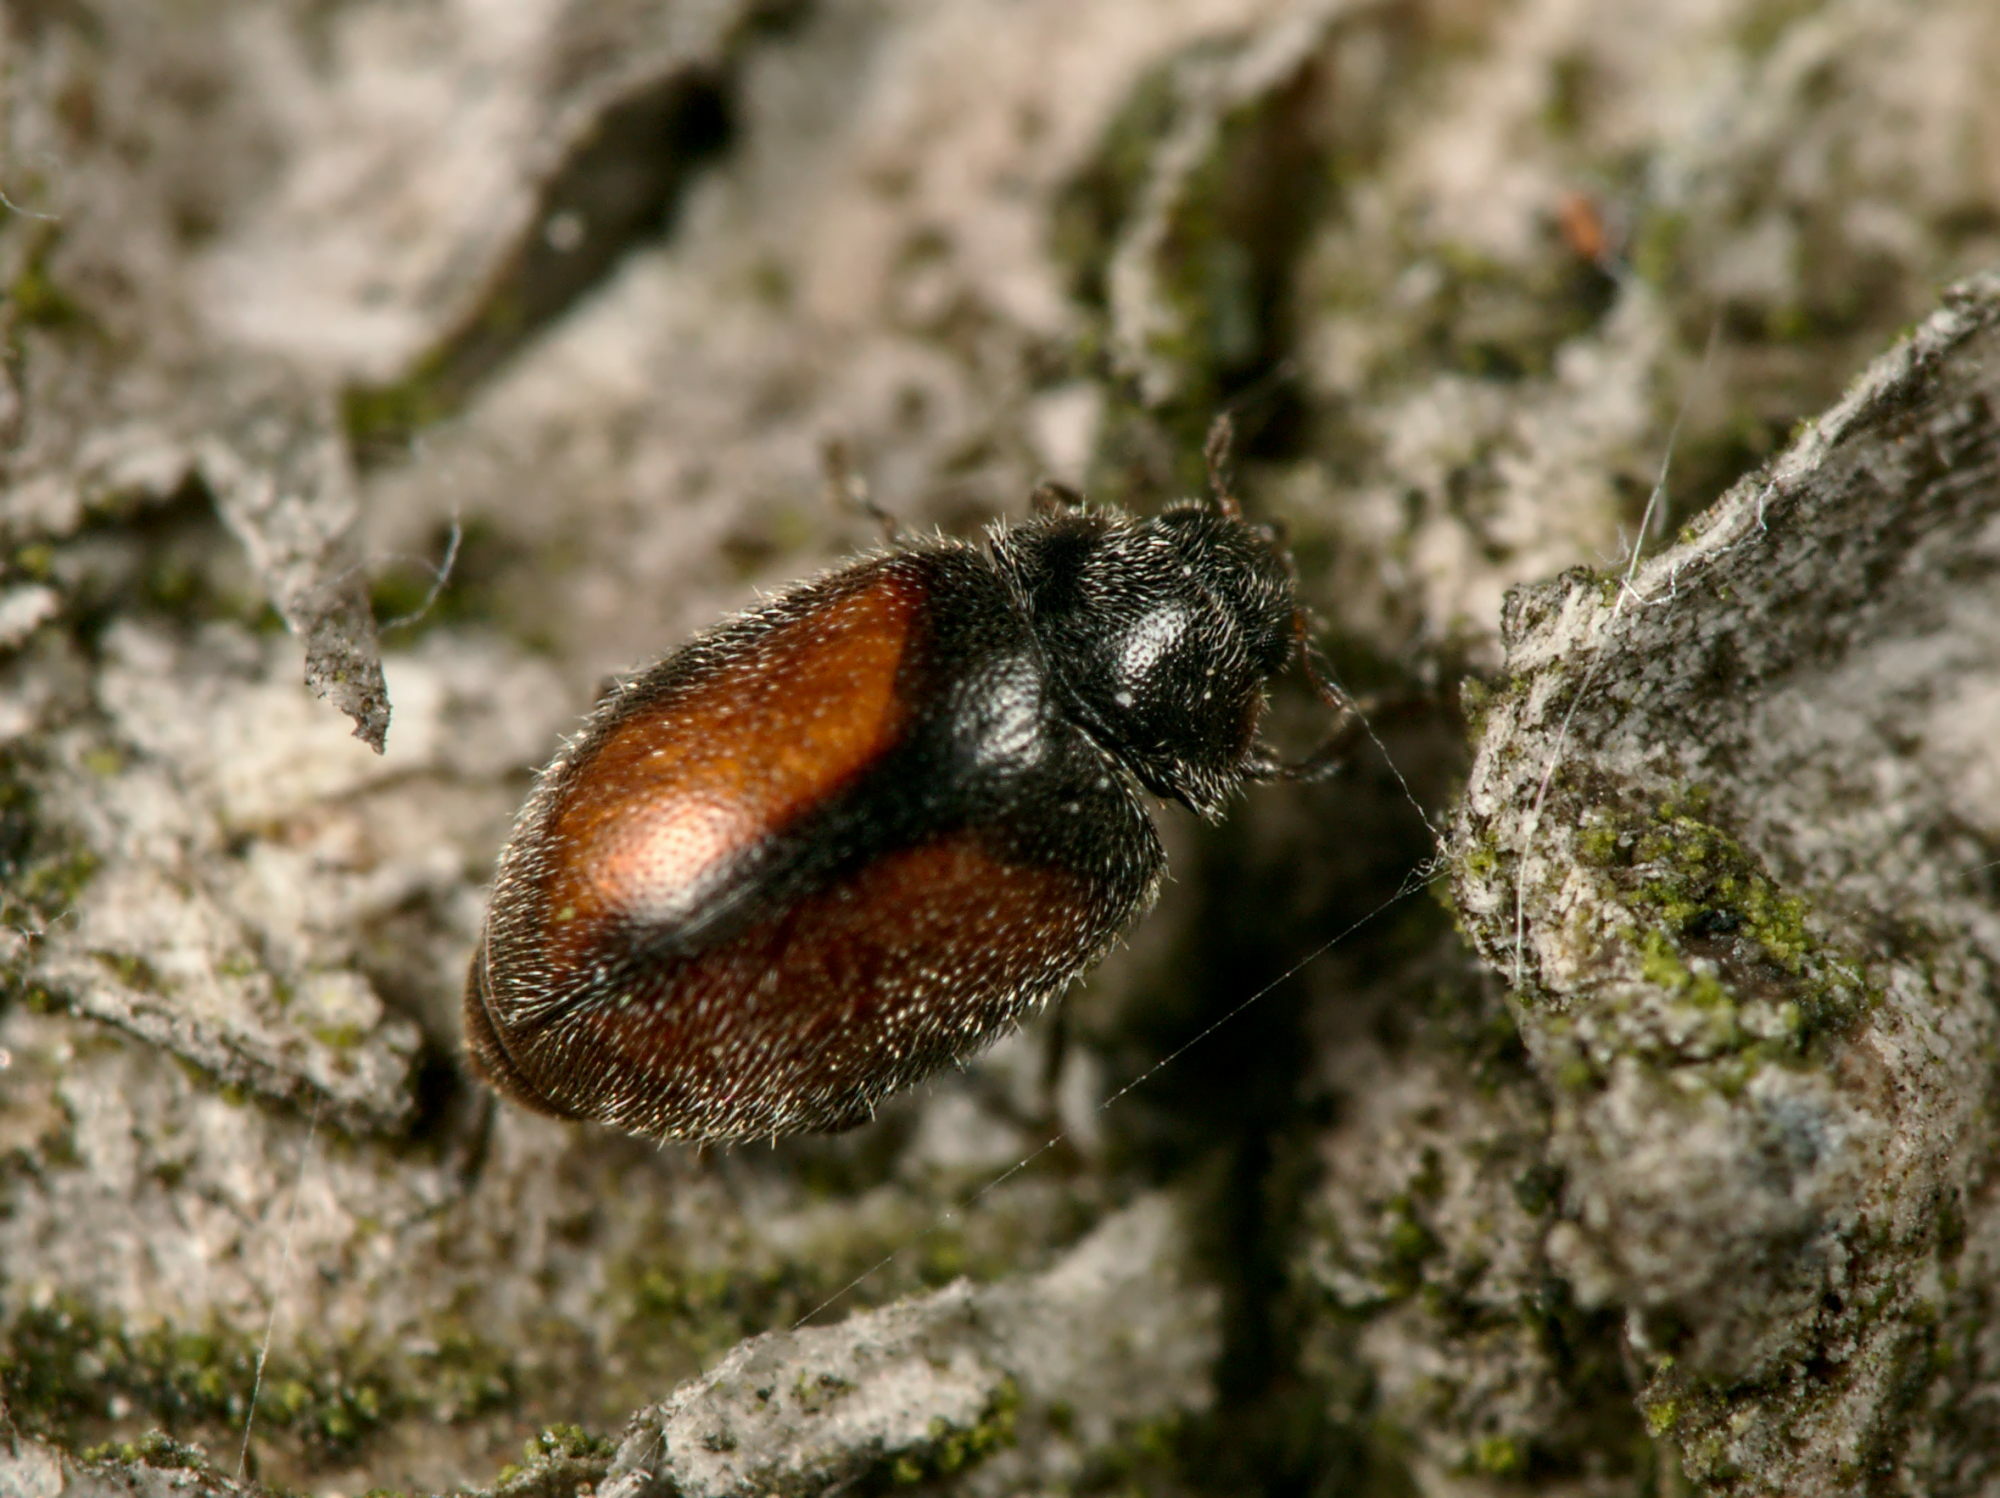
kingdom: Animalia
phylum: Arthropoda
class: Insecta
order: Coleoptera
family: Coccinellidae
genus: Scymnus
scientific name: Scymnus suturalis
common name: Ladybird beetle
